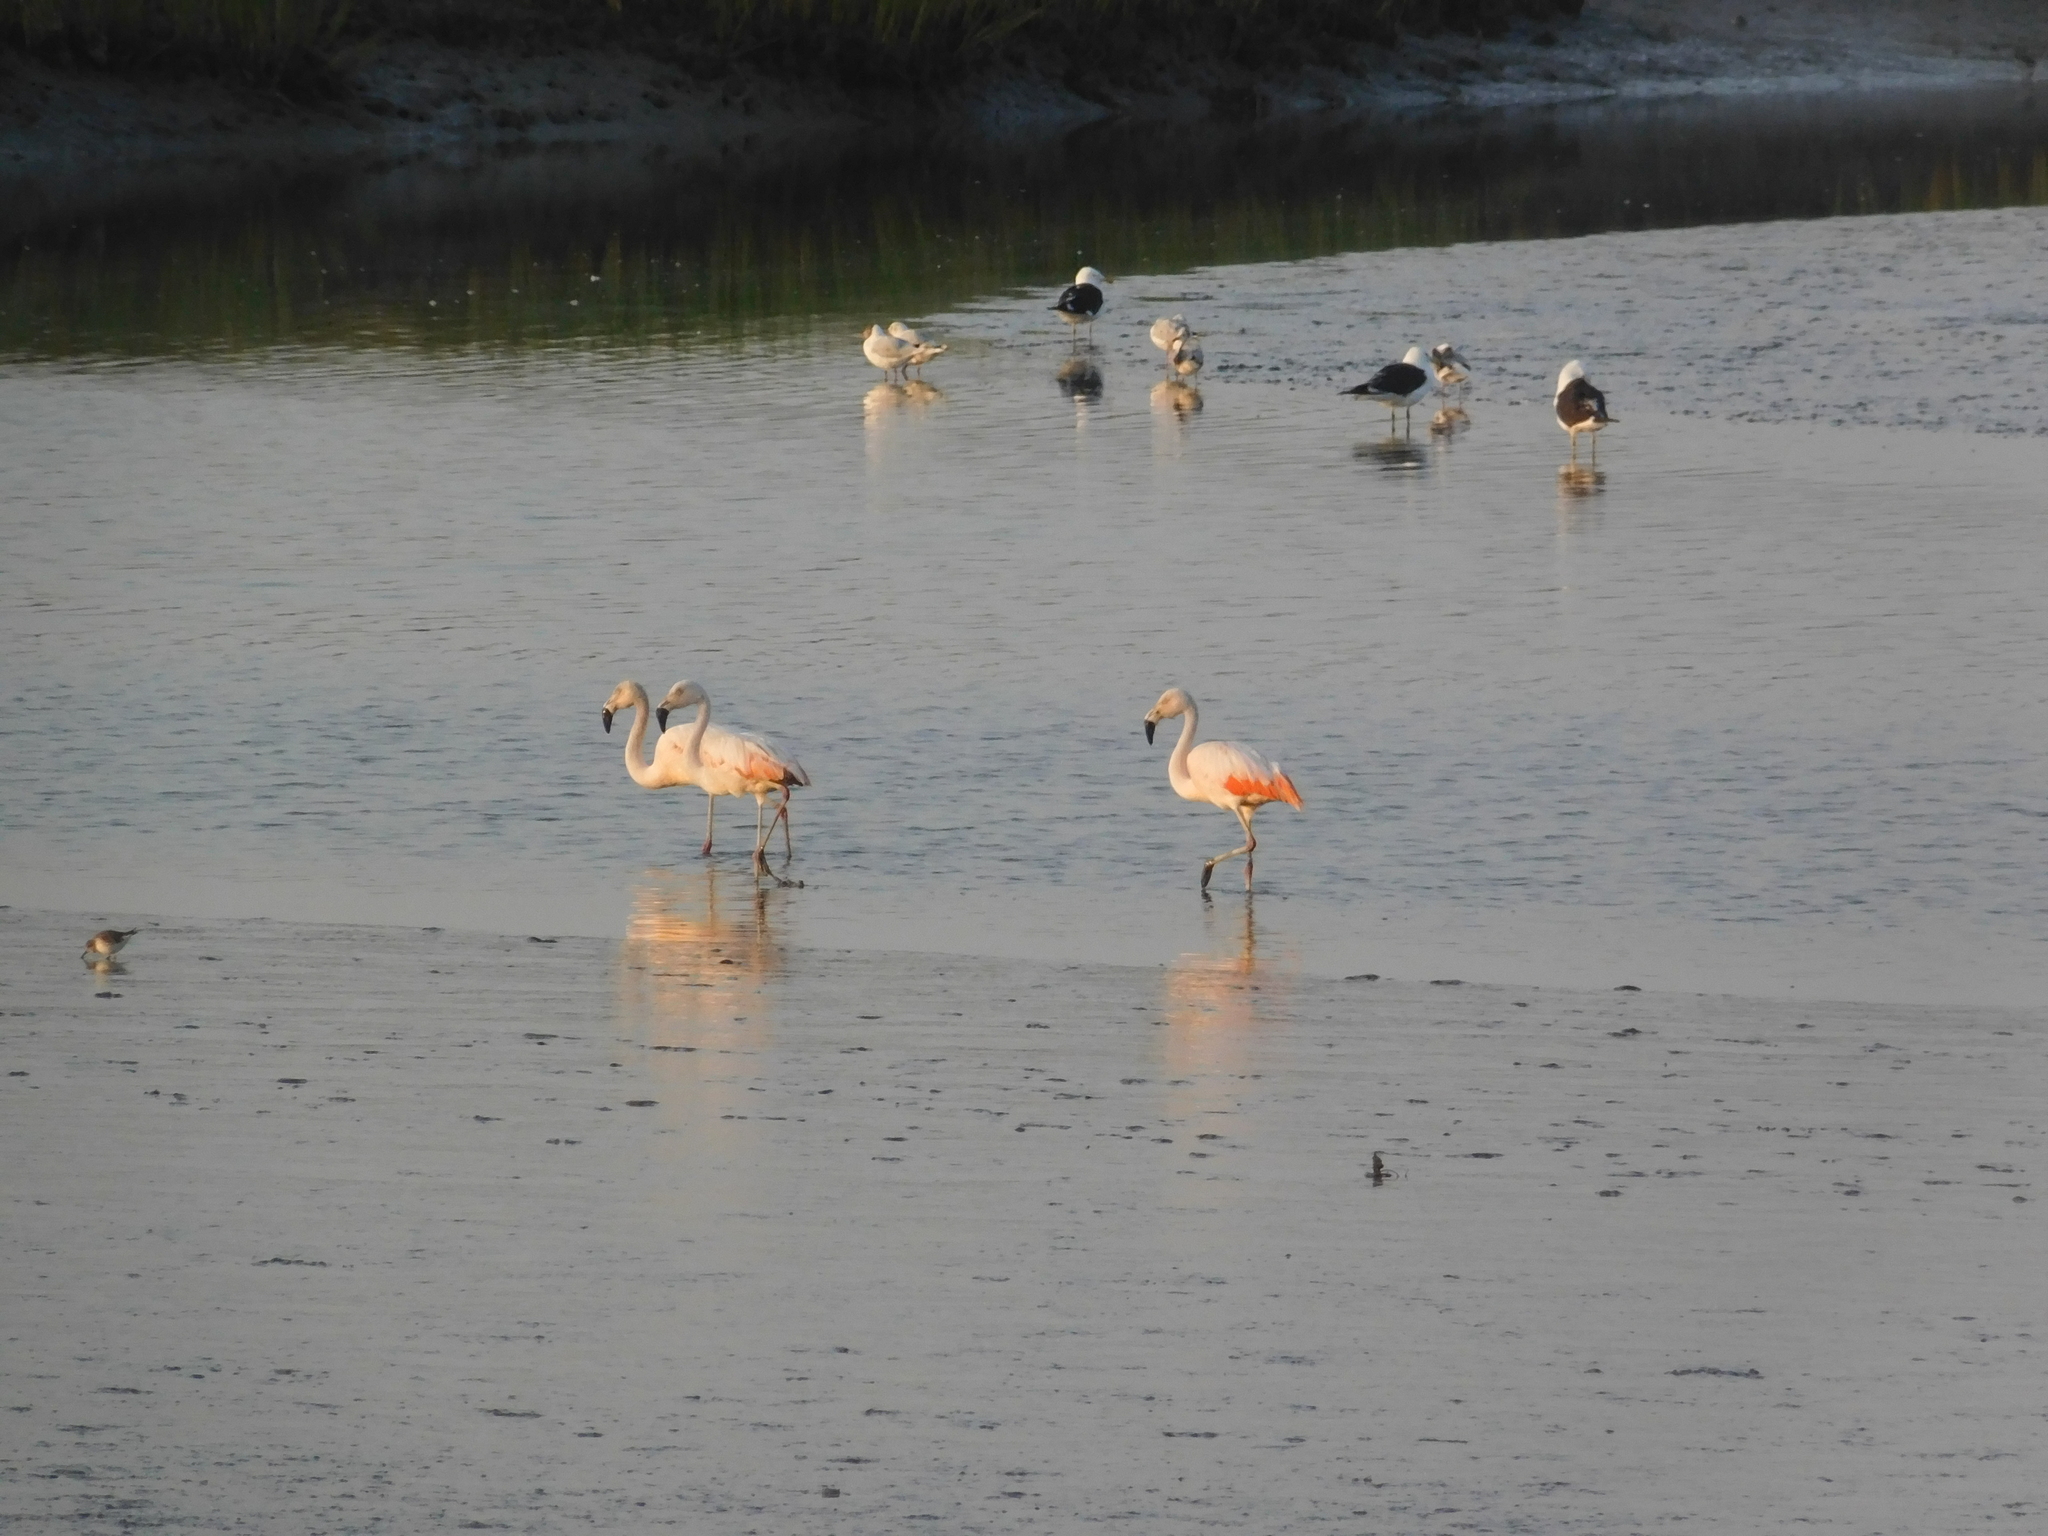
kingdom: Animalia
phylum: Chordata
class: Aves
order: Phoenicopteriformes
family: Phoenicopteridae
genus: Phoenicopterus
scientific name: Phoenicopterus chilensis
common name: Chilean flamingo
